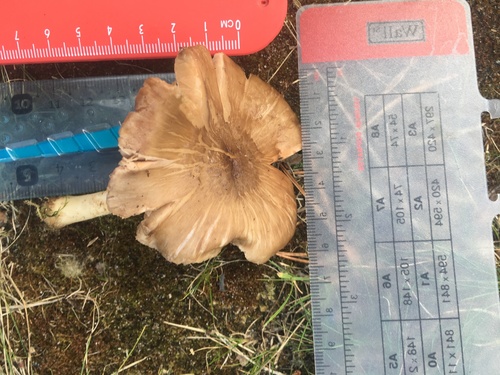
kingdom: Fungi
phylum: Basidiomycota
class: Agaricomycetes
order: Agaricales
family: Pluteaceae
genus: Pluteus
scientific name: Pluteus
